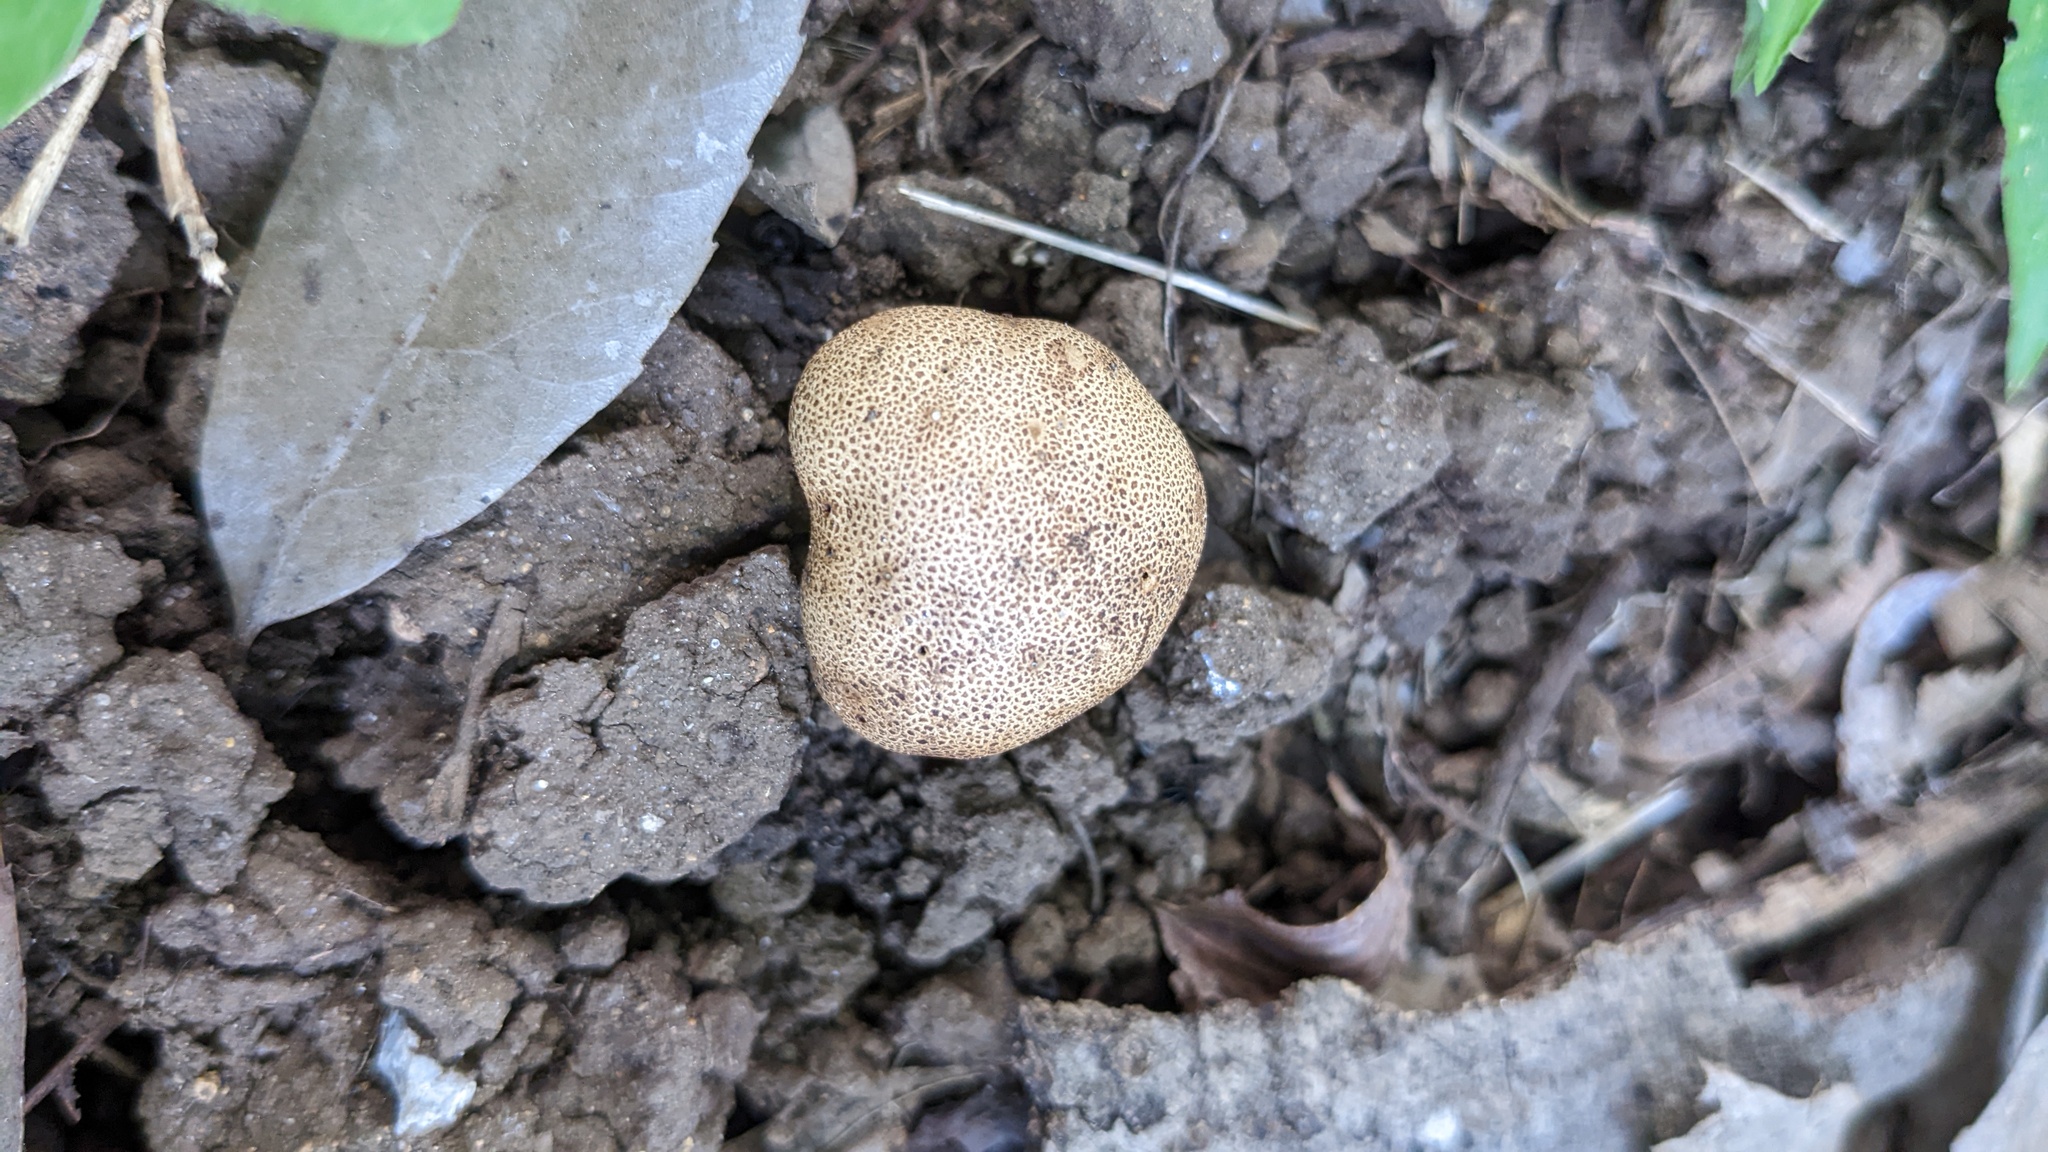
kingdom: Fungi
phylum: Basidiomycota
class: Agaricomycetes
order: Boletales
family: Sclerodermataceae
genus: Scleroderma
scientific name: Scleroderma verrucosum
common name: Scaly earthball
